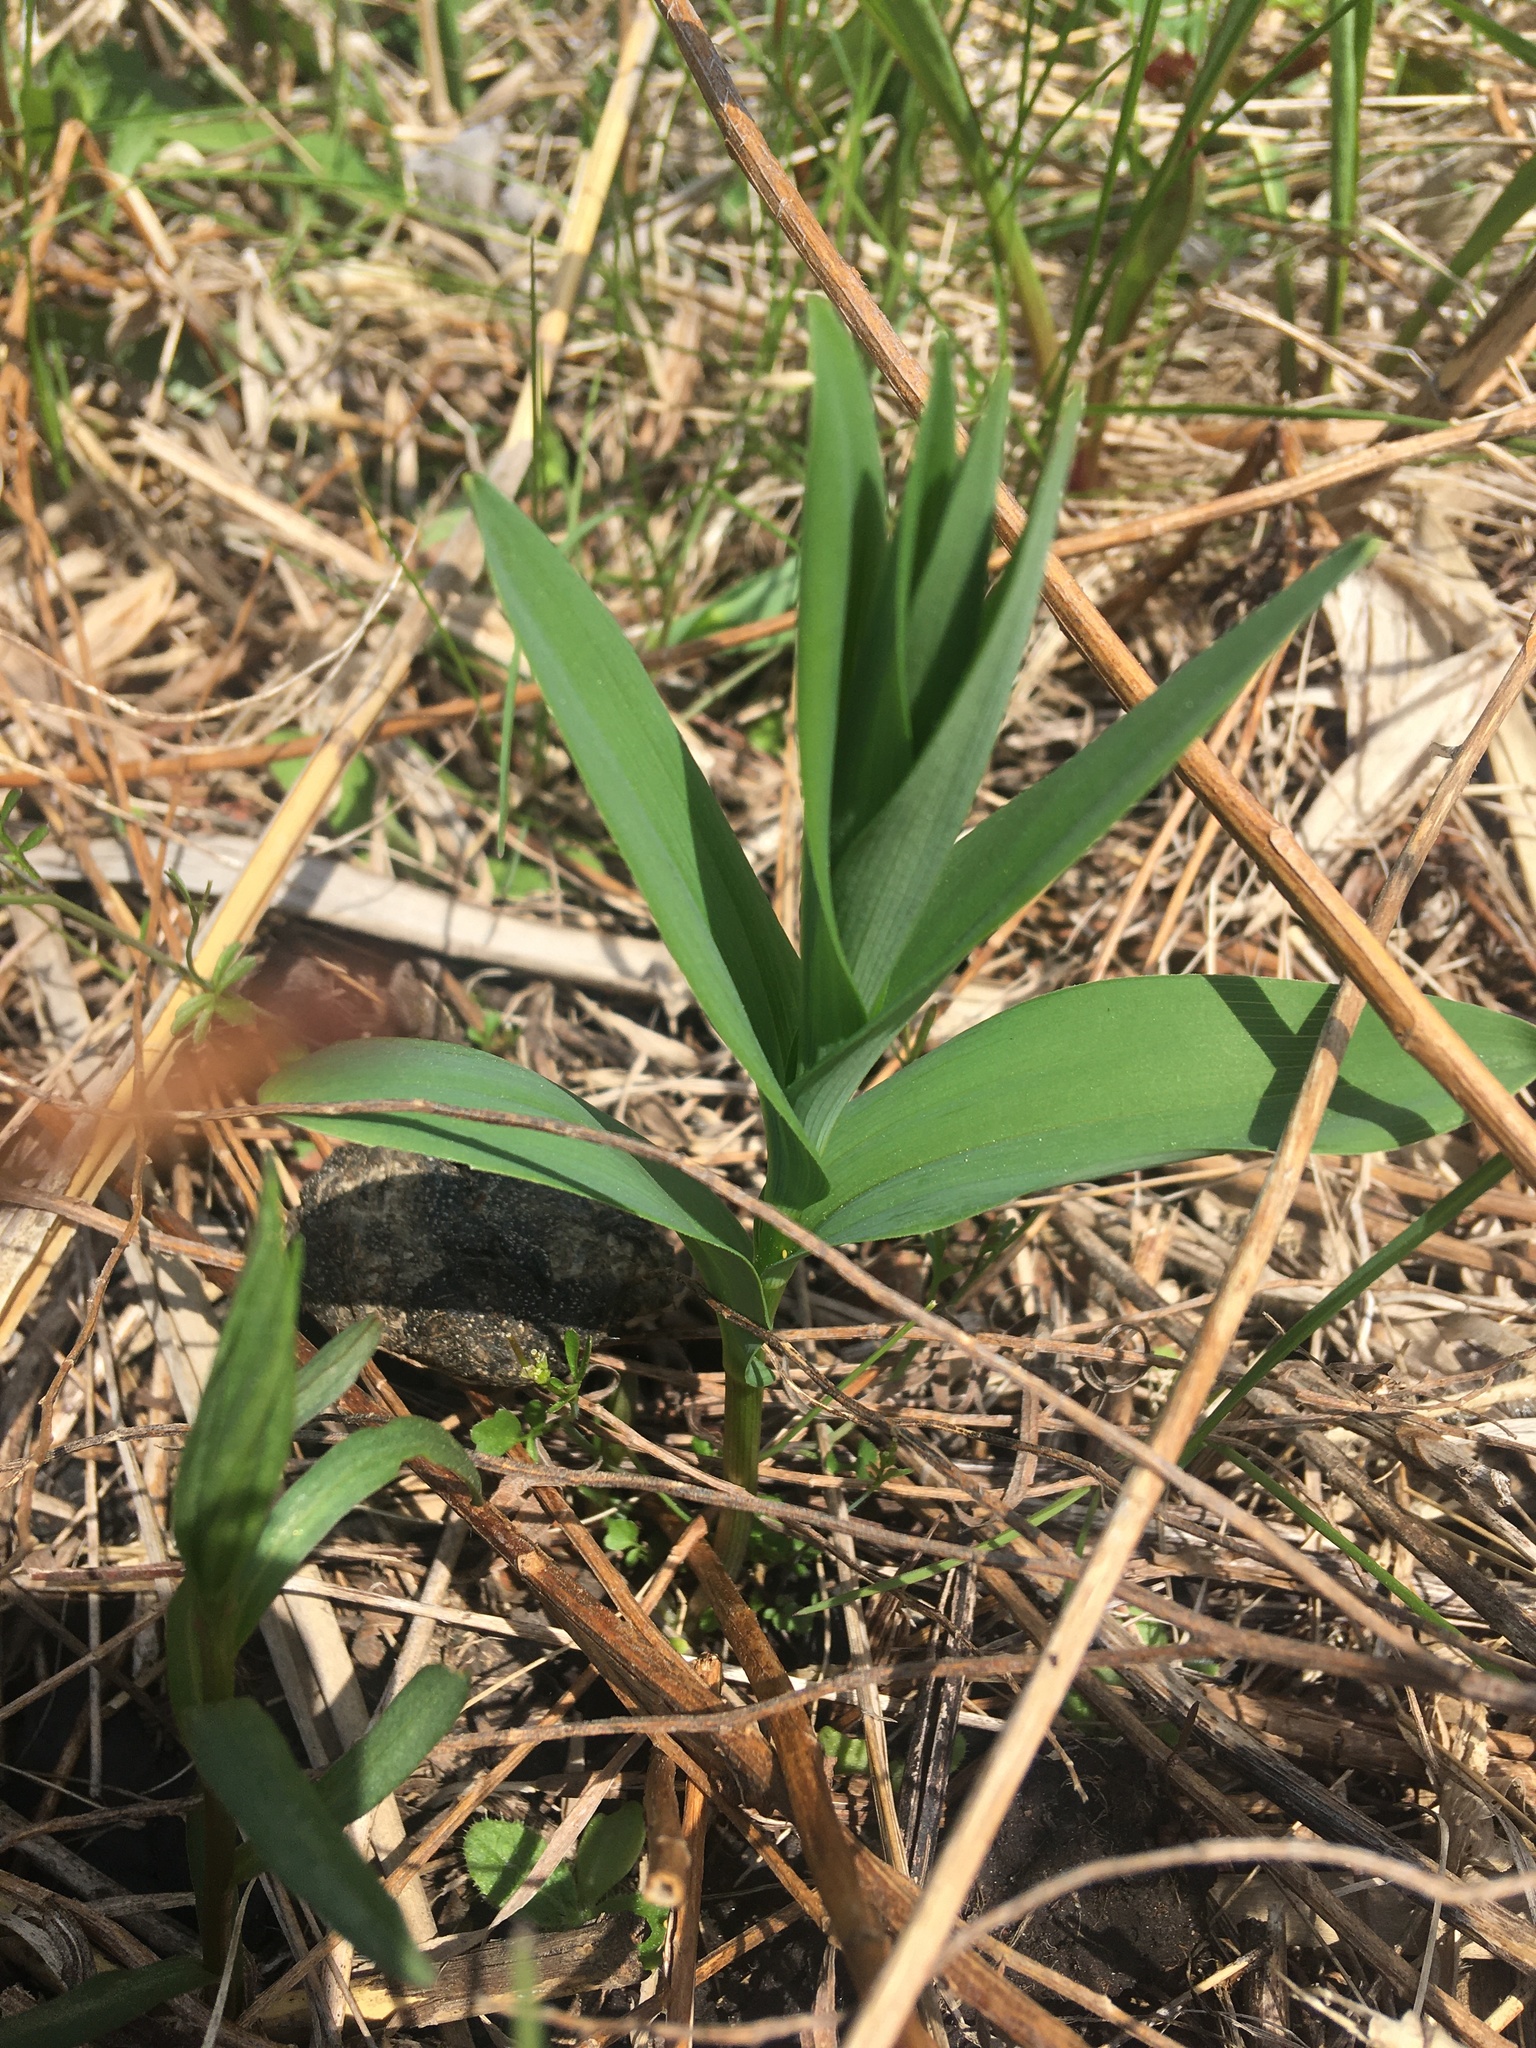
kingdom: Plantae
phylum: Tracheophyta
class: Liliopsida
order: Asparagales
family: Asparagaceae
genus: Maianthemum
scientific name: Maianthemum stellatum
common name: Little false solomon's seal
